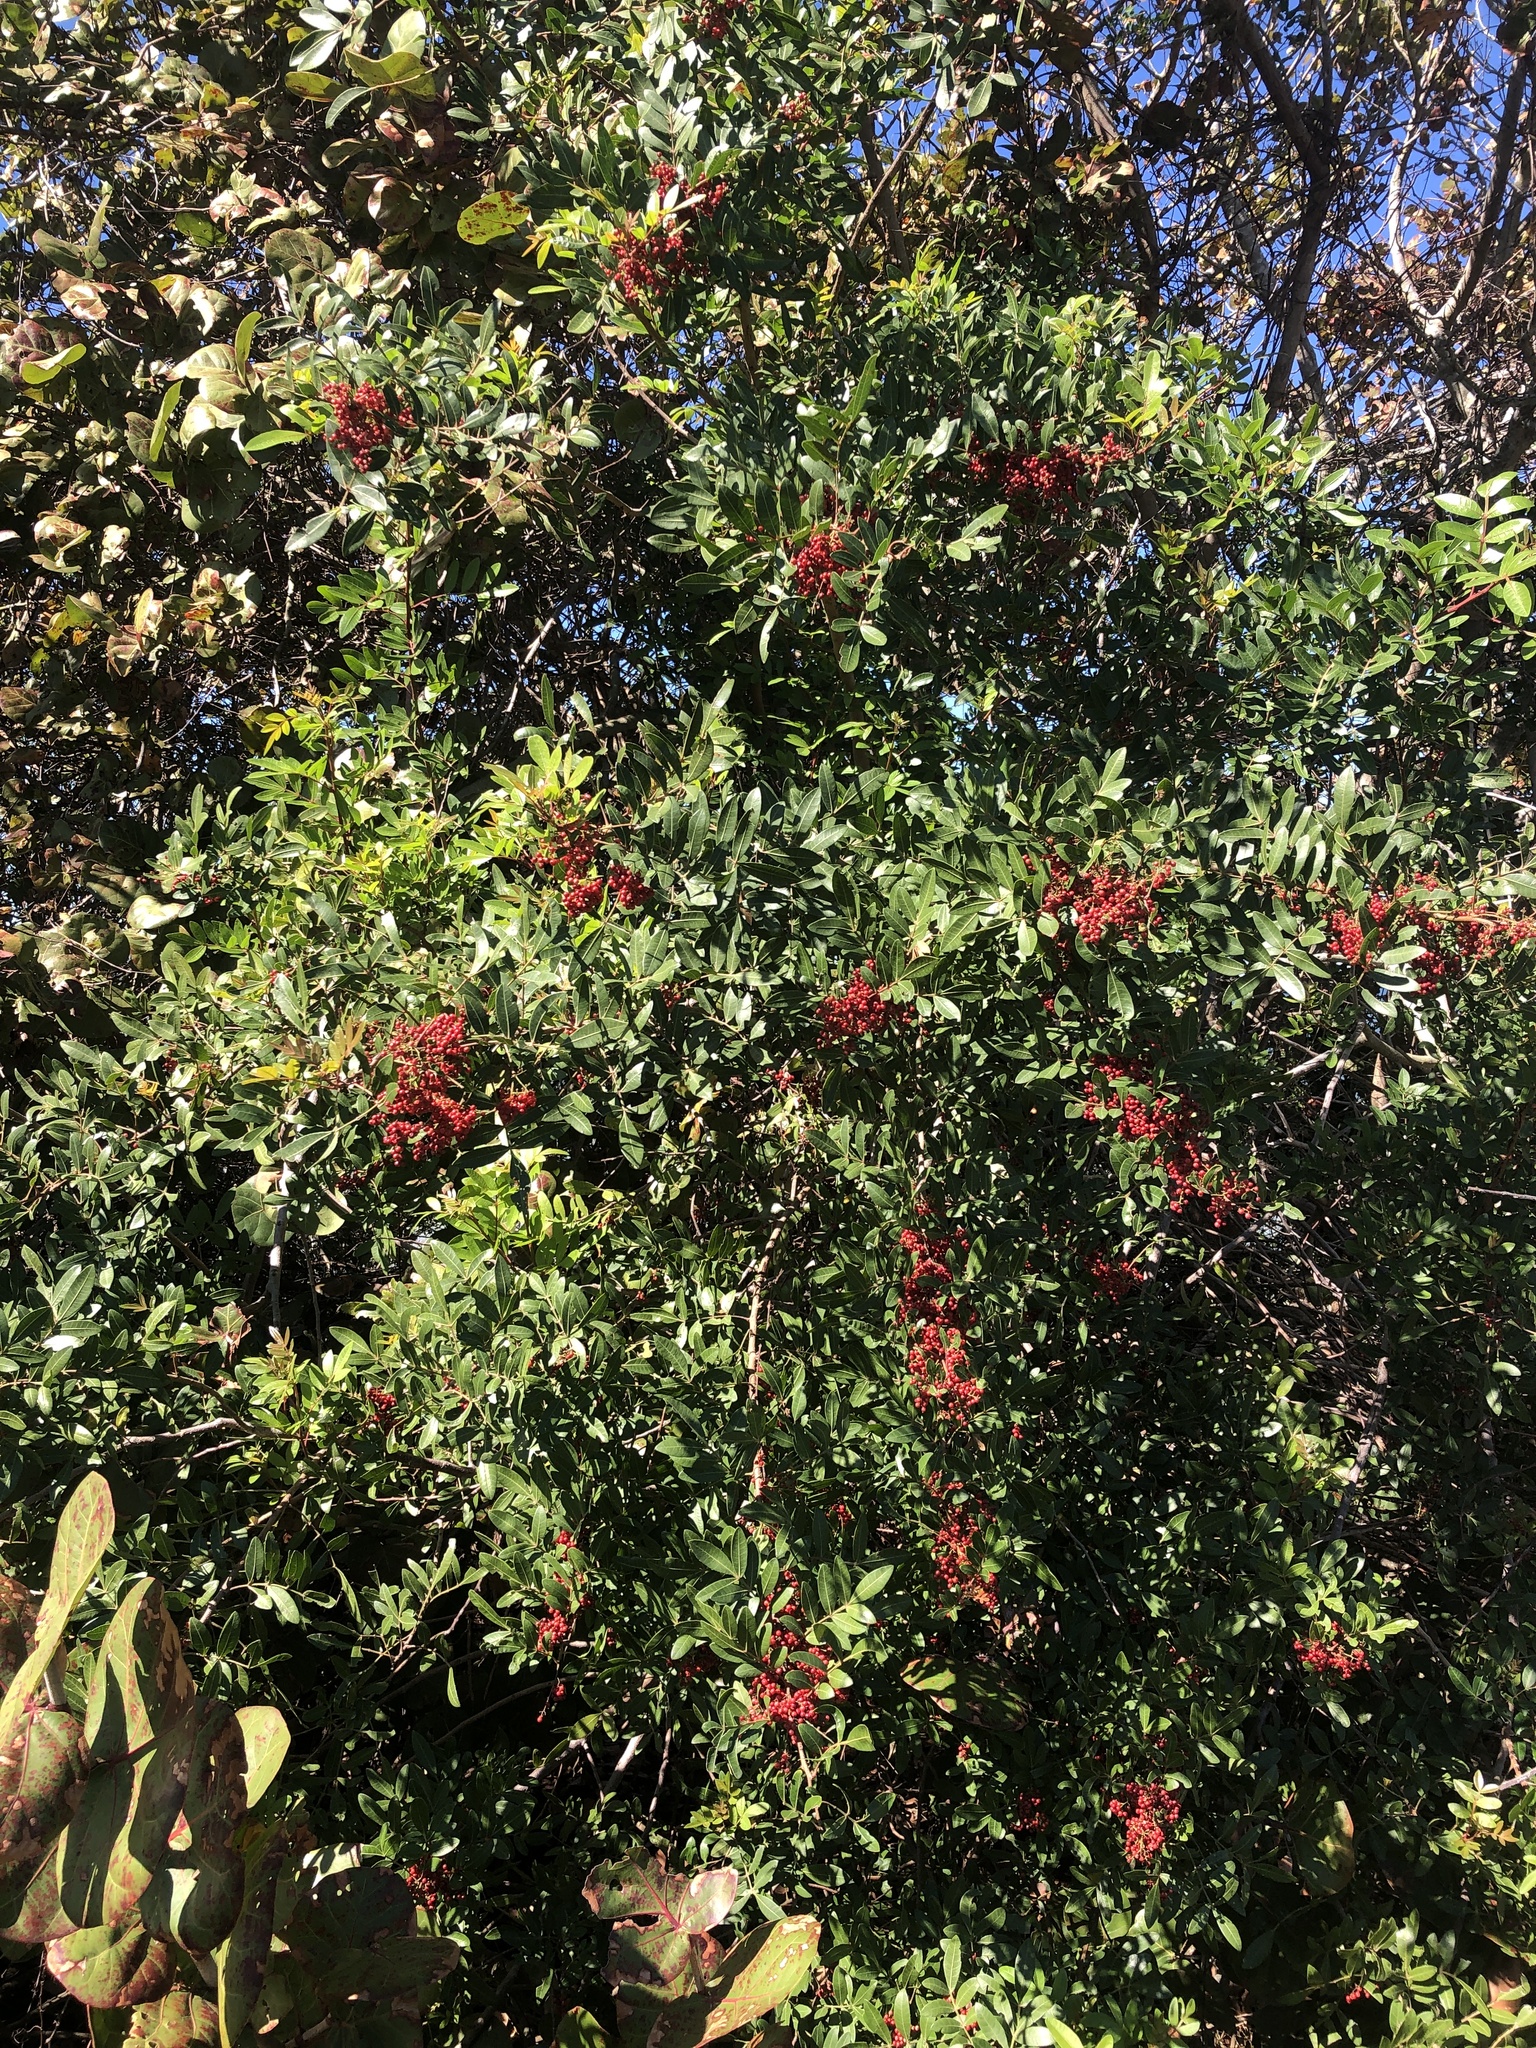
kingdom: Plantae
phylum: Tracheophyta
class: Magnoliopsida
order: Sapindales
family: Anacardiaceae
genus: Schinus
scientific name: Schinus terebinthifolia
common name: Brazilian peppertree
